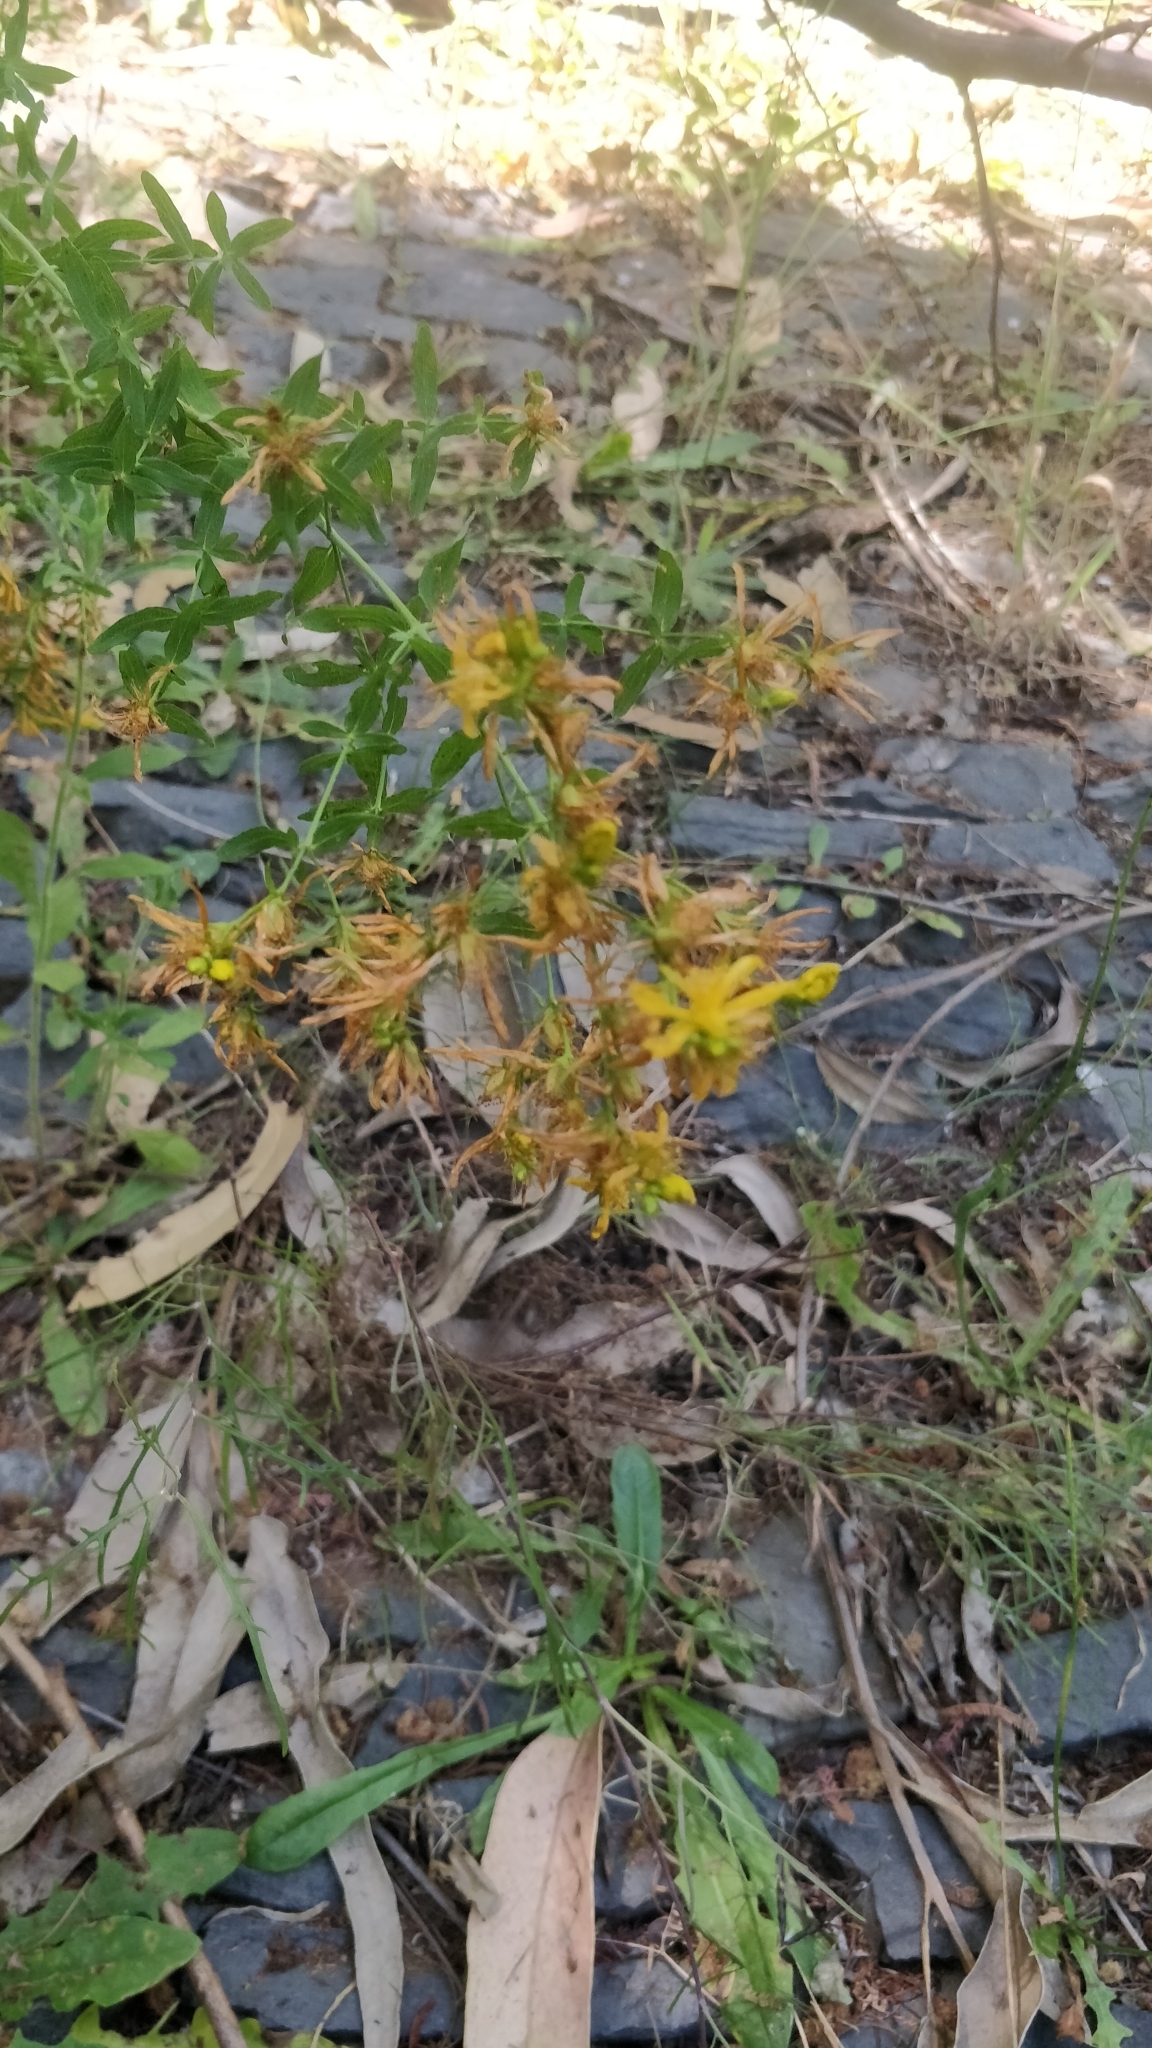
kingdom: Plantae
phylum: Tracheophyta
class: Magnoliopsida
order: Malpighiales
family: Hypericaceae
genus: Hypericum
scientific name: Hypericum perforatum
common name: Common st. johnswort
